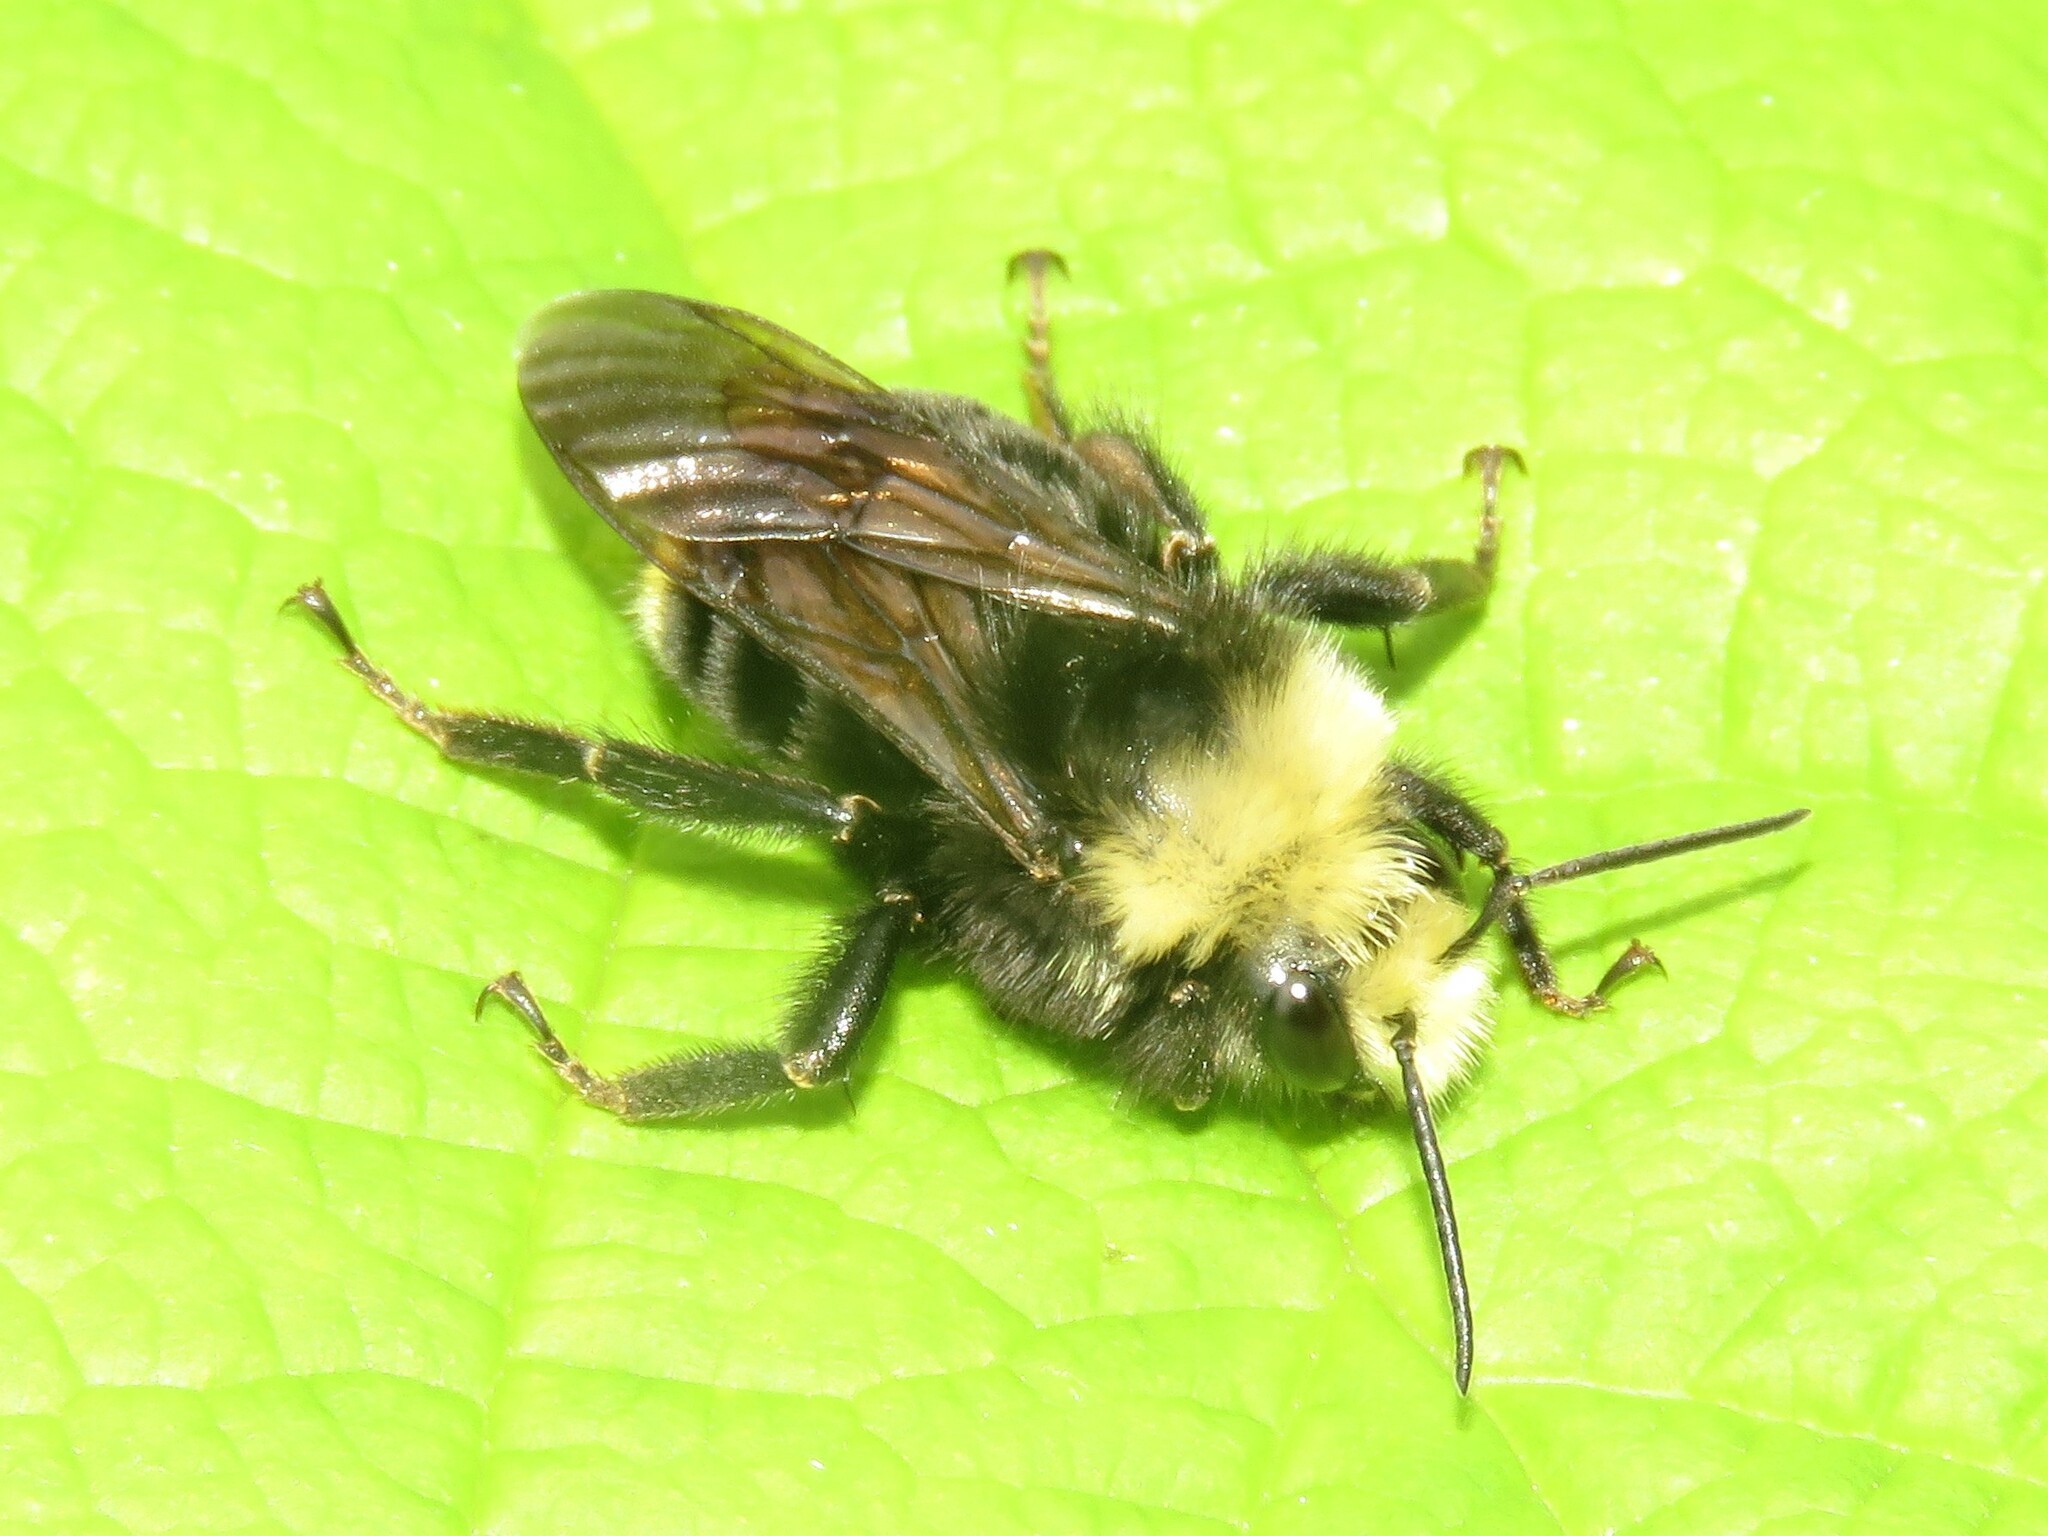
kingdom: Animalia
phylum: Arthropoda
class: Insecta
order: Hymenoptera
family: Apidae
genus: Bombus
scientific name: Bombus vosnesenskii
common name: Vosnesensky bumble bee
